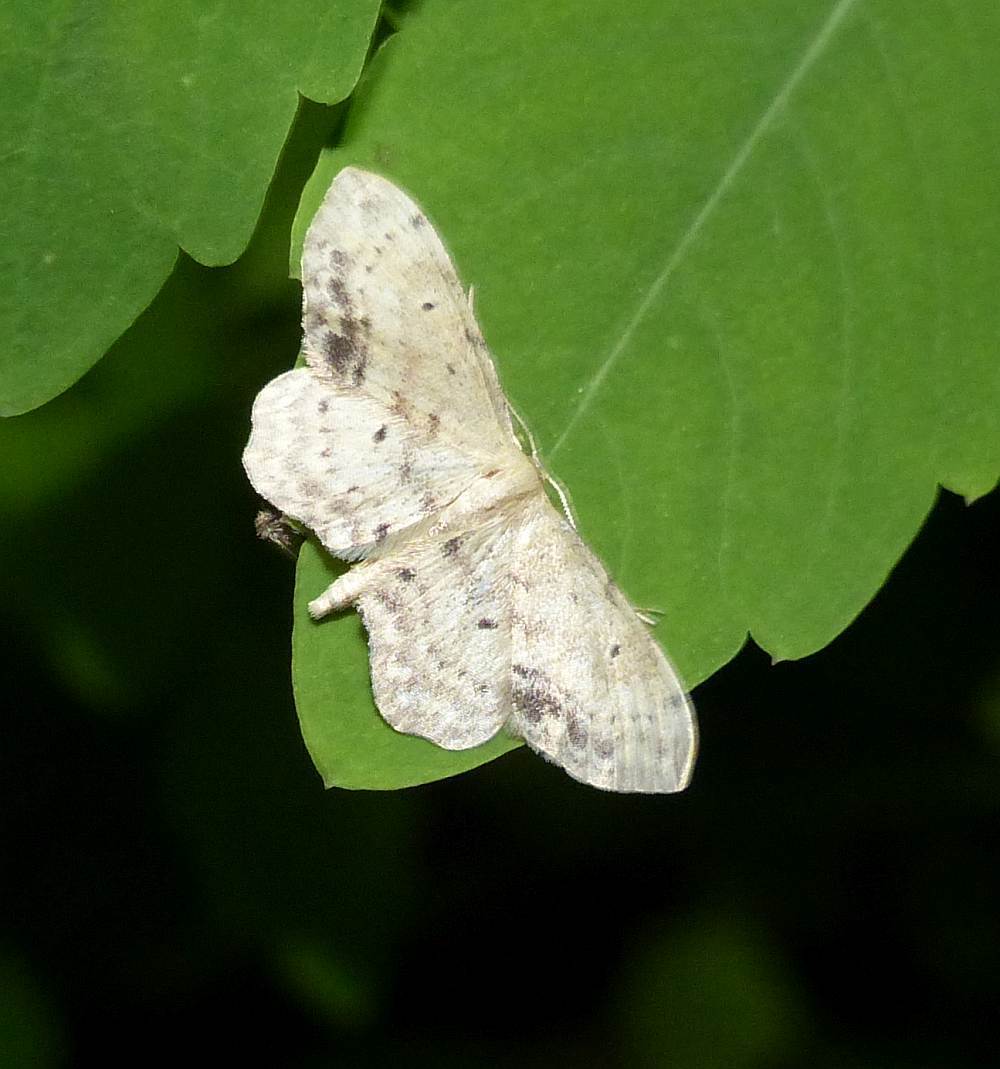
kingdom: Animalia
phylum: Arthropoda
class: Insecta
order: Lepidoptera
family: Geometridae
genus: Idaea
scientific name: Idaea dimidiata
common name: Single-dotted wave
